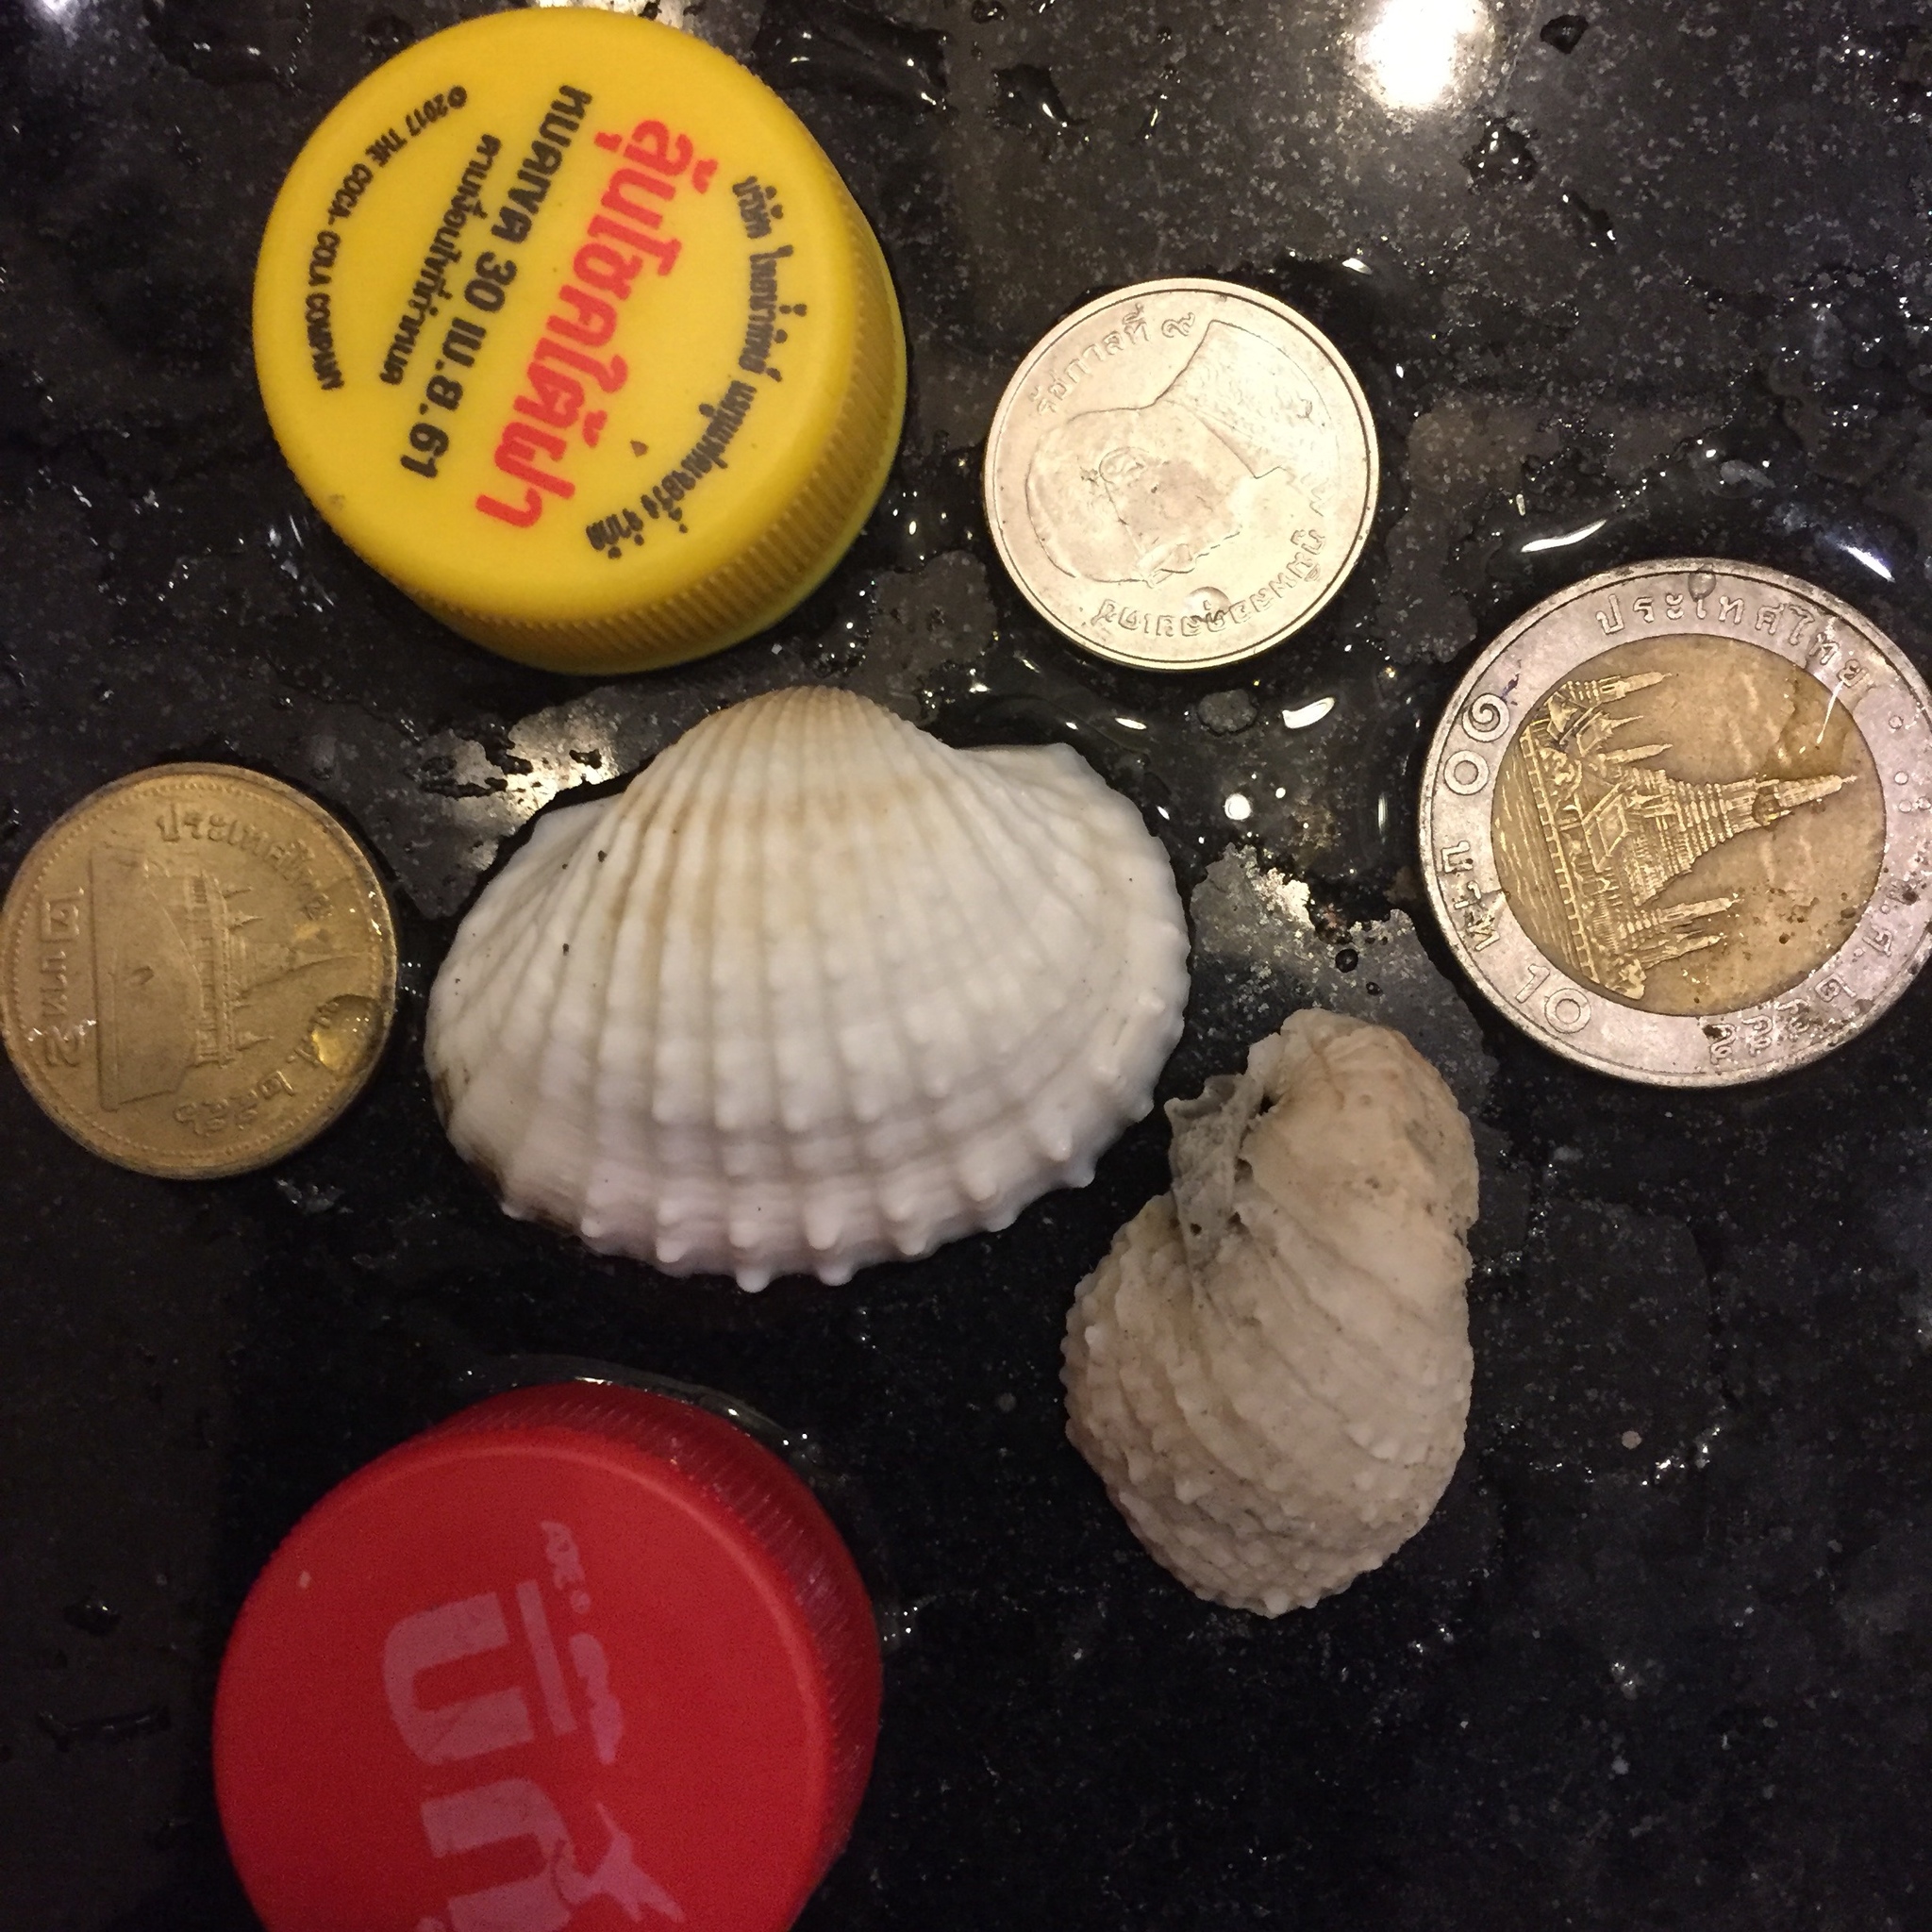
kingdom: Animalia
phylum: Mollusca
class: Bivalvia
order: Arcida
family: Arcidae
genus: Tegillarca
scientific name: Tegillarca granosa
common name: Blood clam
